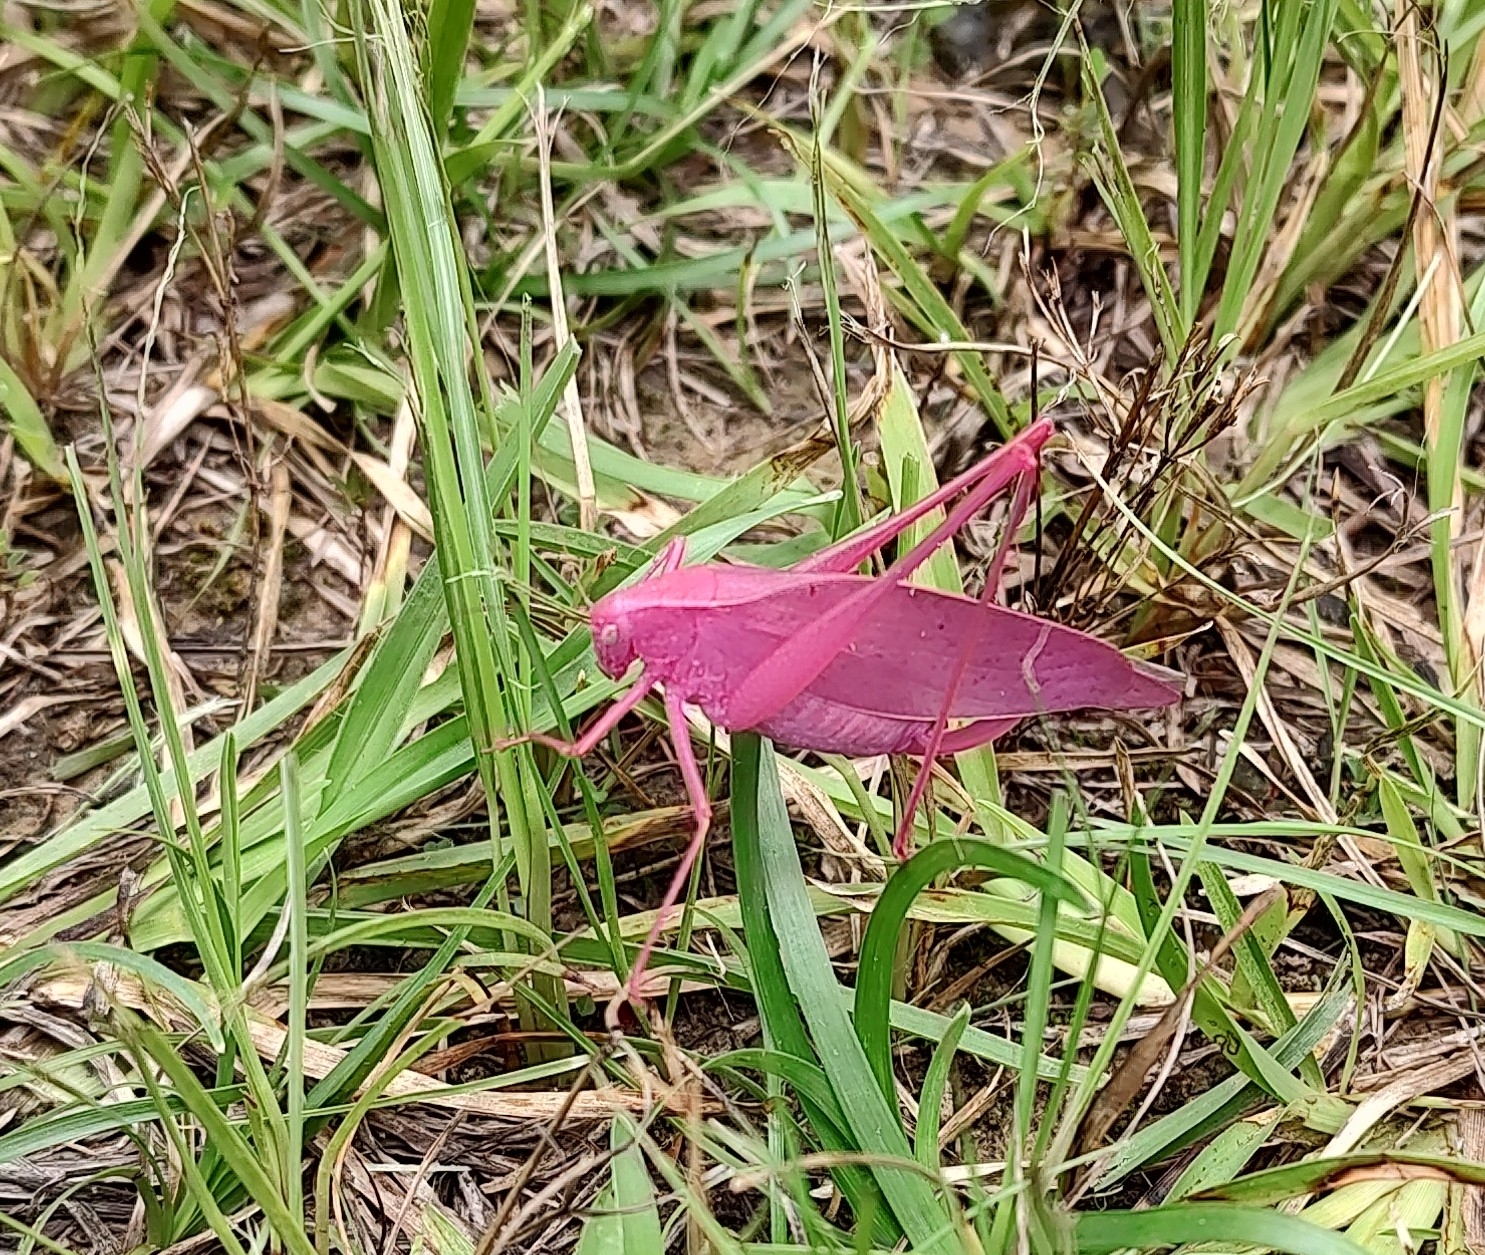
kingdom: Animalia
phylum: Arthropoda
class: Insecta
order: Orthoptera
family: Tettigoniidae
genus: Amblycorypha
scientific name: Amblycorypha oblongifolia
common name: Oblong-winged katydid
